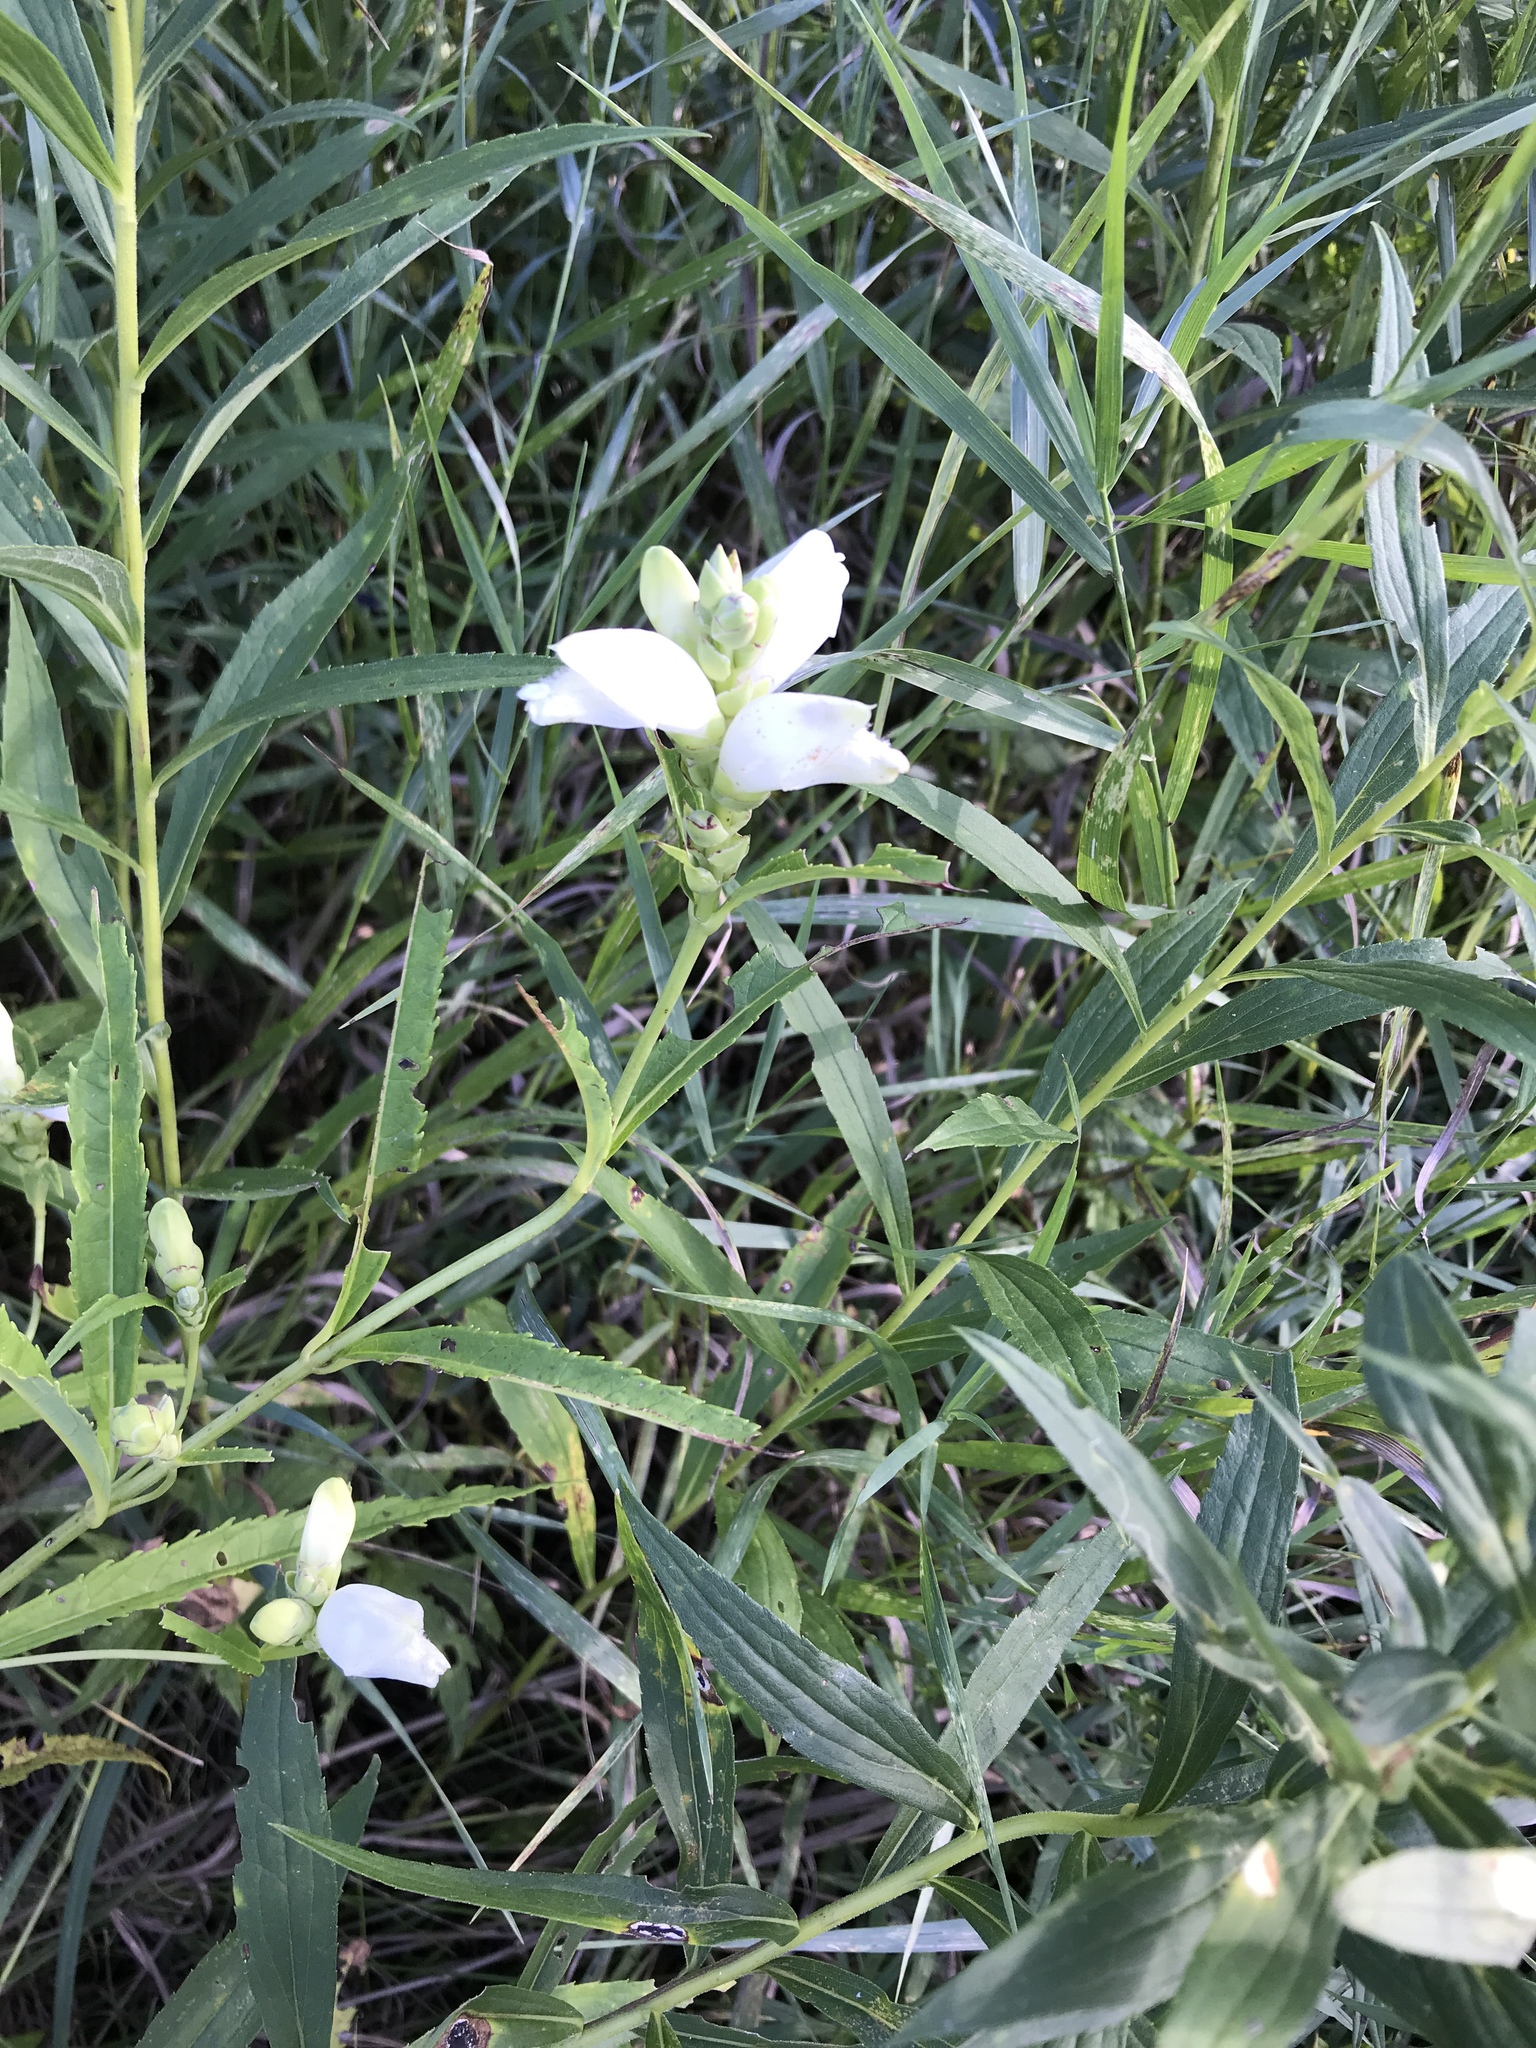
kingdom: Plantae
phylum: Tracheophyta
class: Magnoliopsida
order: Lamiales
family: Plantaginaceae
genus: Chelone
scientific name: Chelone glabra
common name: Snakehead
